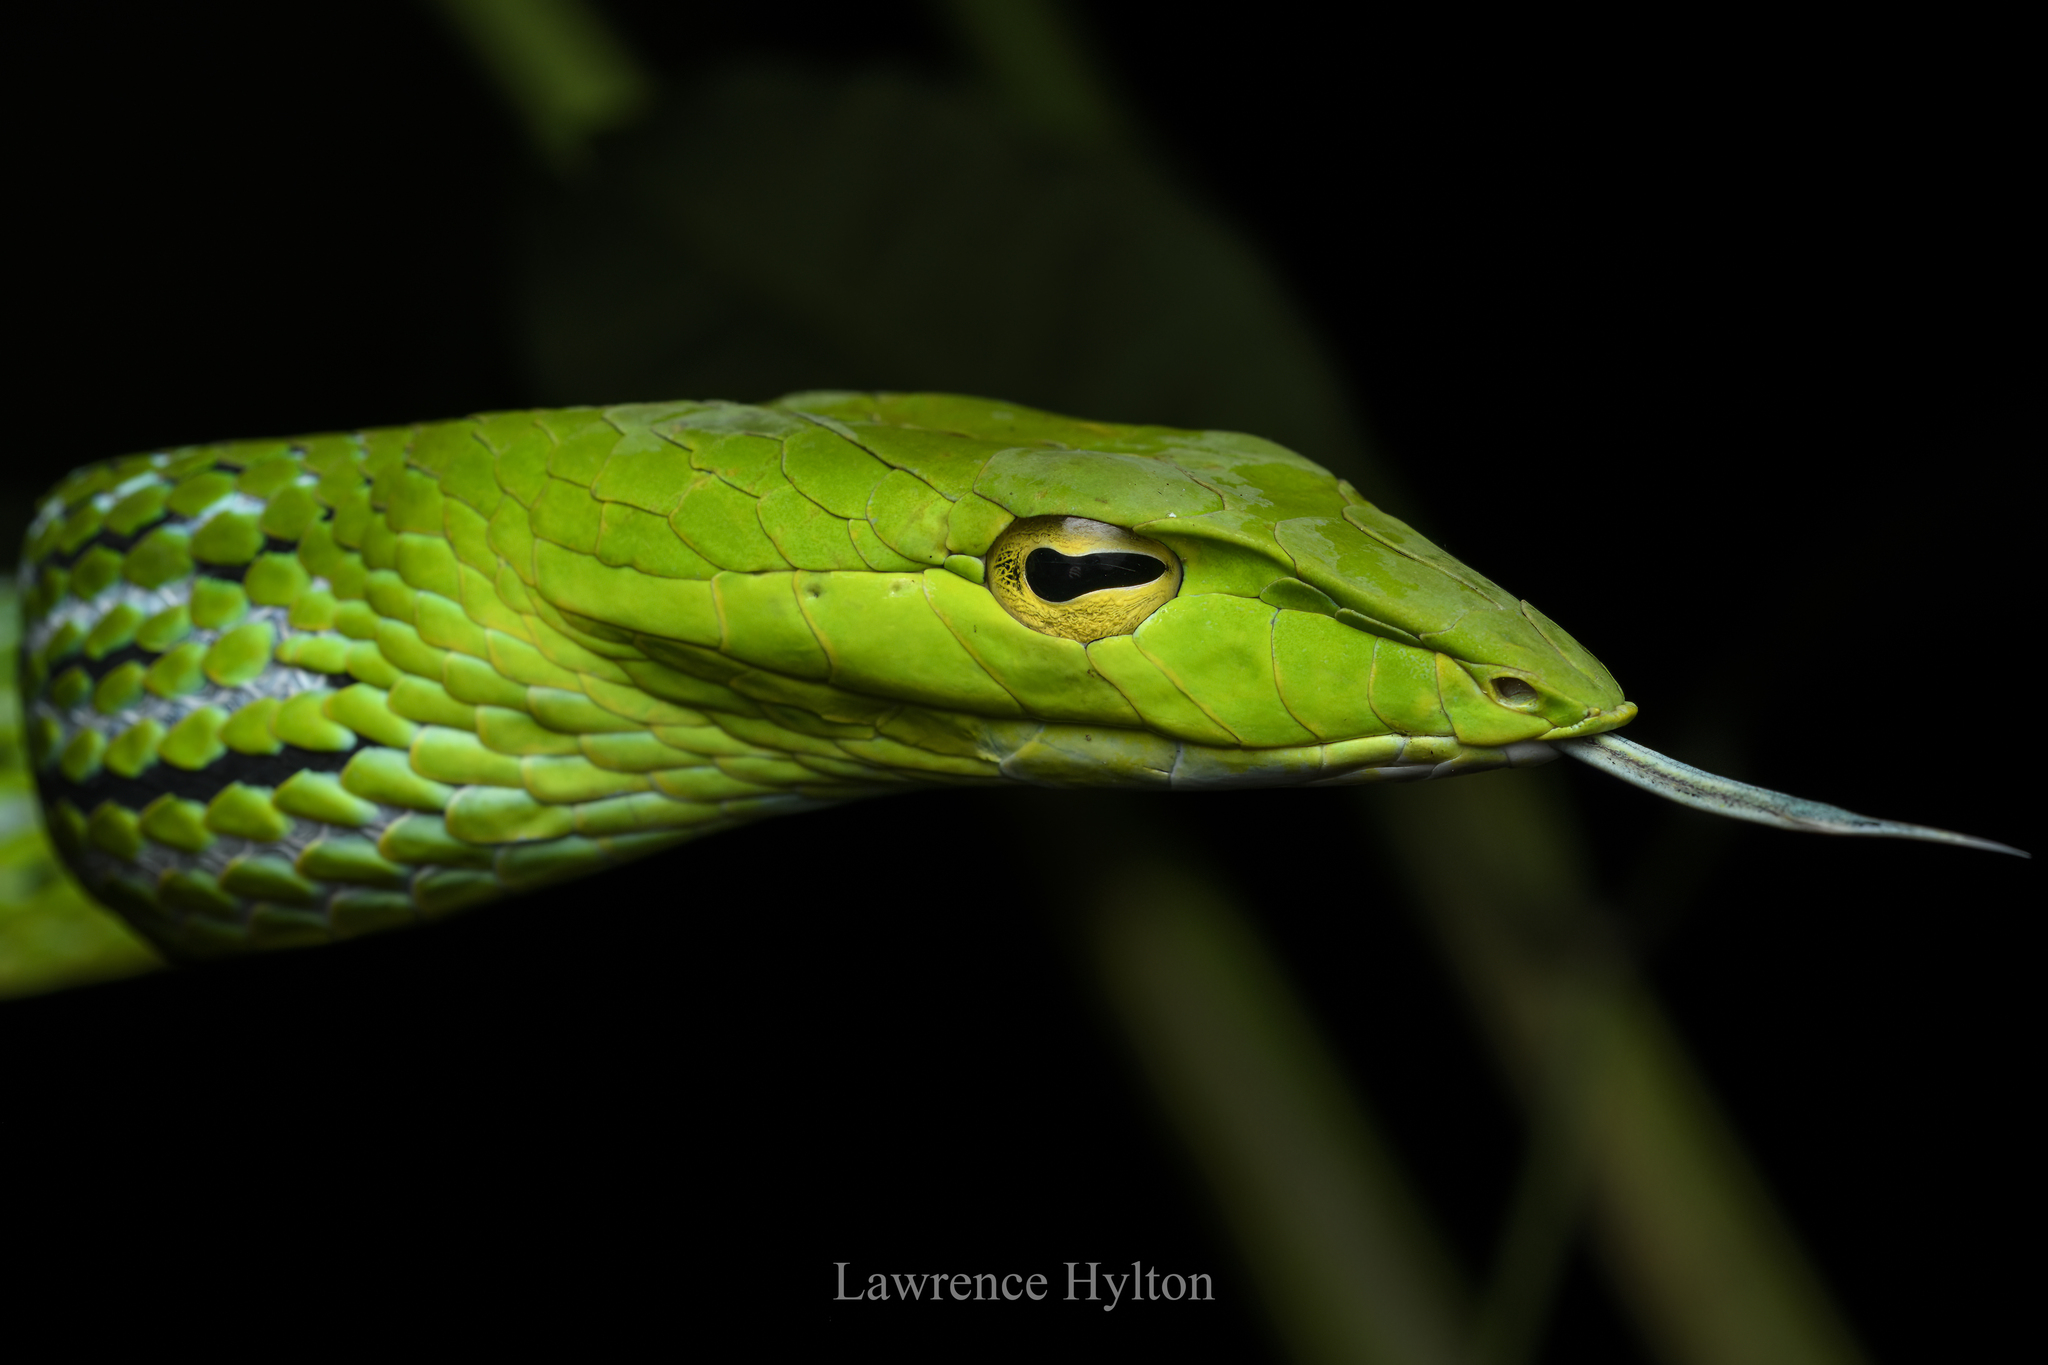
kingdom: Animalia
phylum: Chordata
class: Squamata
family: Colubridae
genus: Ahaetulla
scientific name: Ahaetulla prasina
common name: Oriental whip snake
